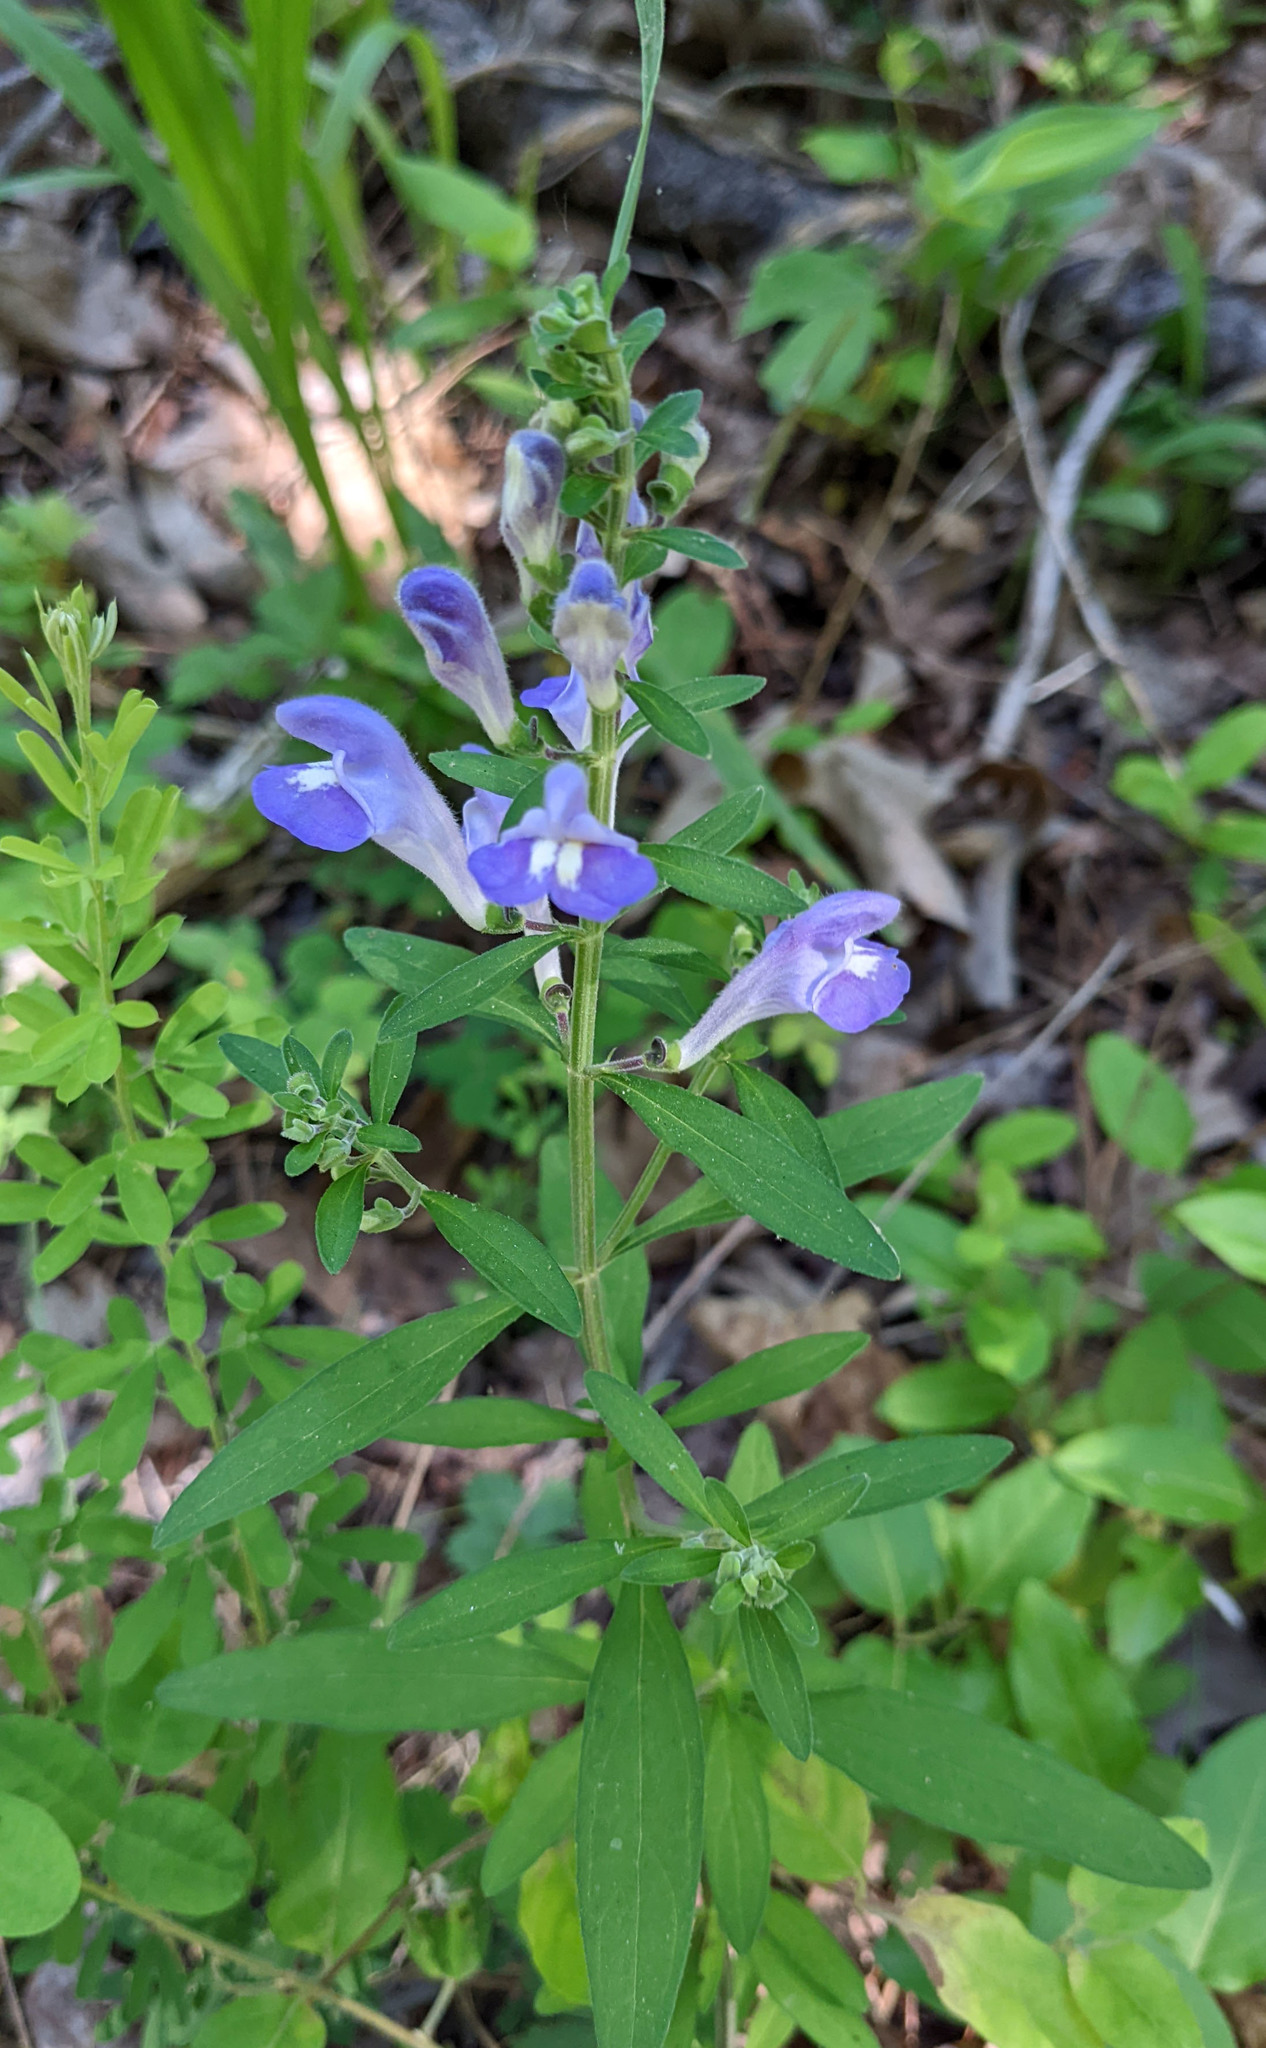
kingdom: Plantae
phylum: Tracheophyta
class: Magnoliopsida
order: Lamiales
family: Lamiaceae
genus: Scutellaria
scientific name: Scutellaria integrifolia
